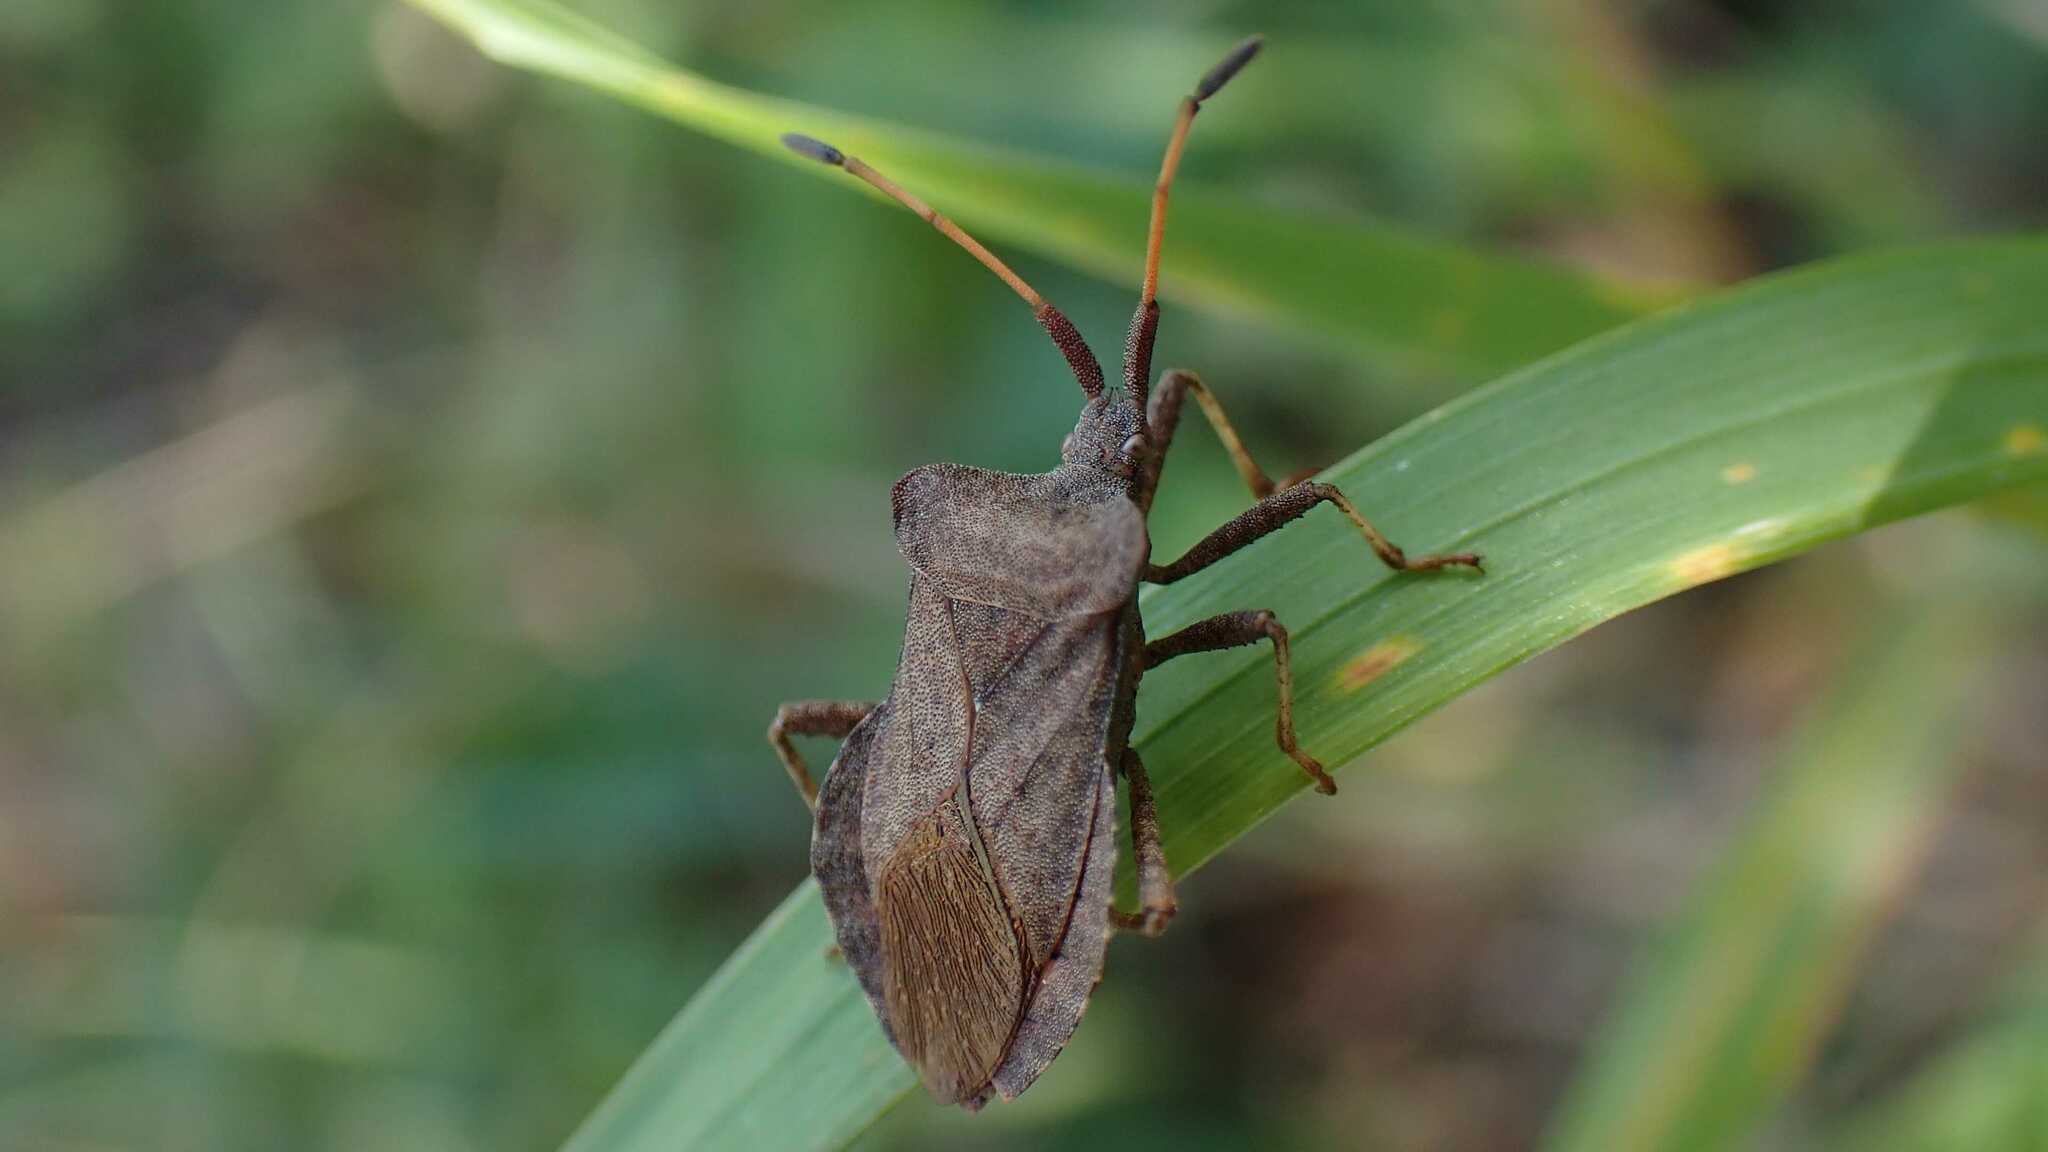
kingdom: Animalia
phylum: Arthropoda
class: Insecta
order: Hemiptera
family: Coreidae
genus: Coreus
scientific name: Coreus marginatus
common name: Dock bug
